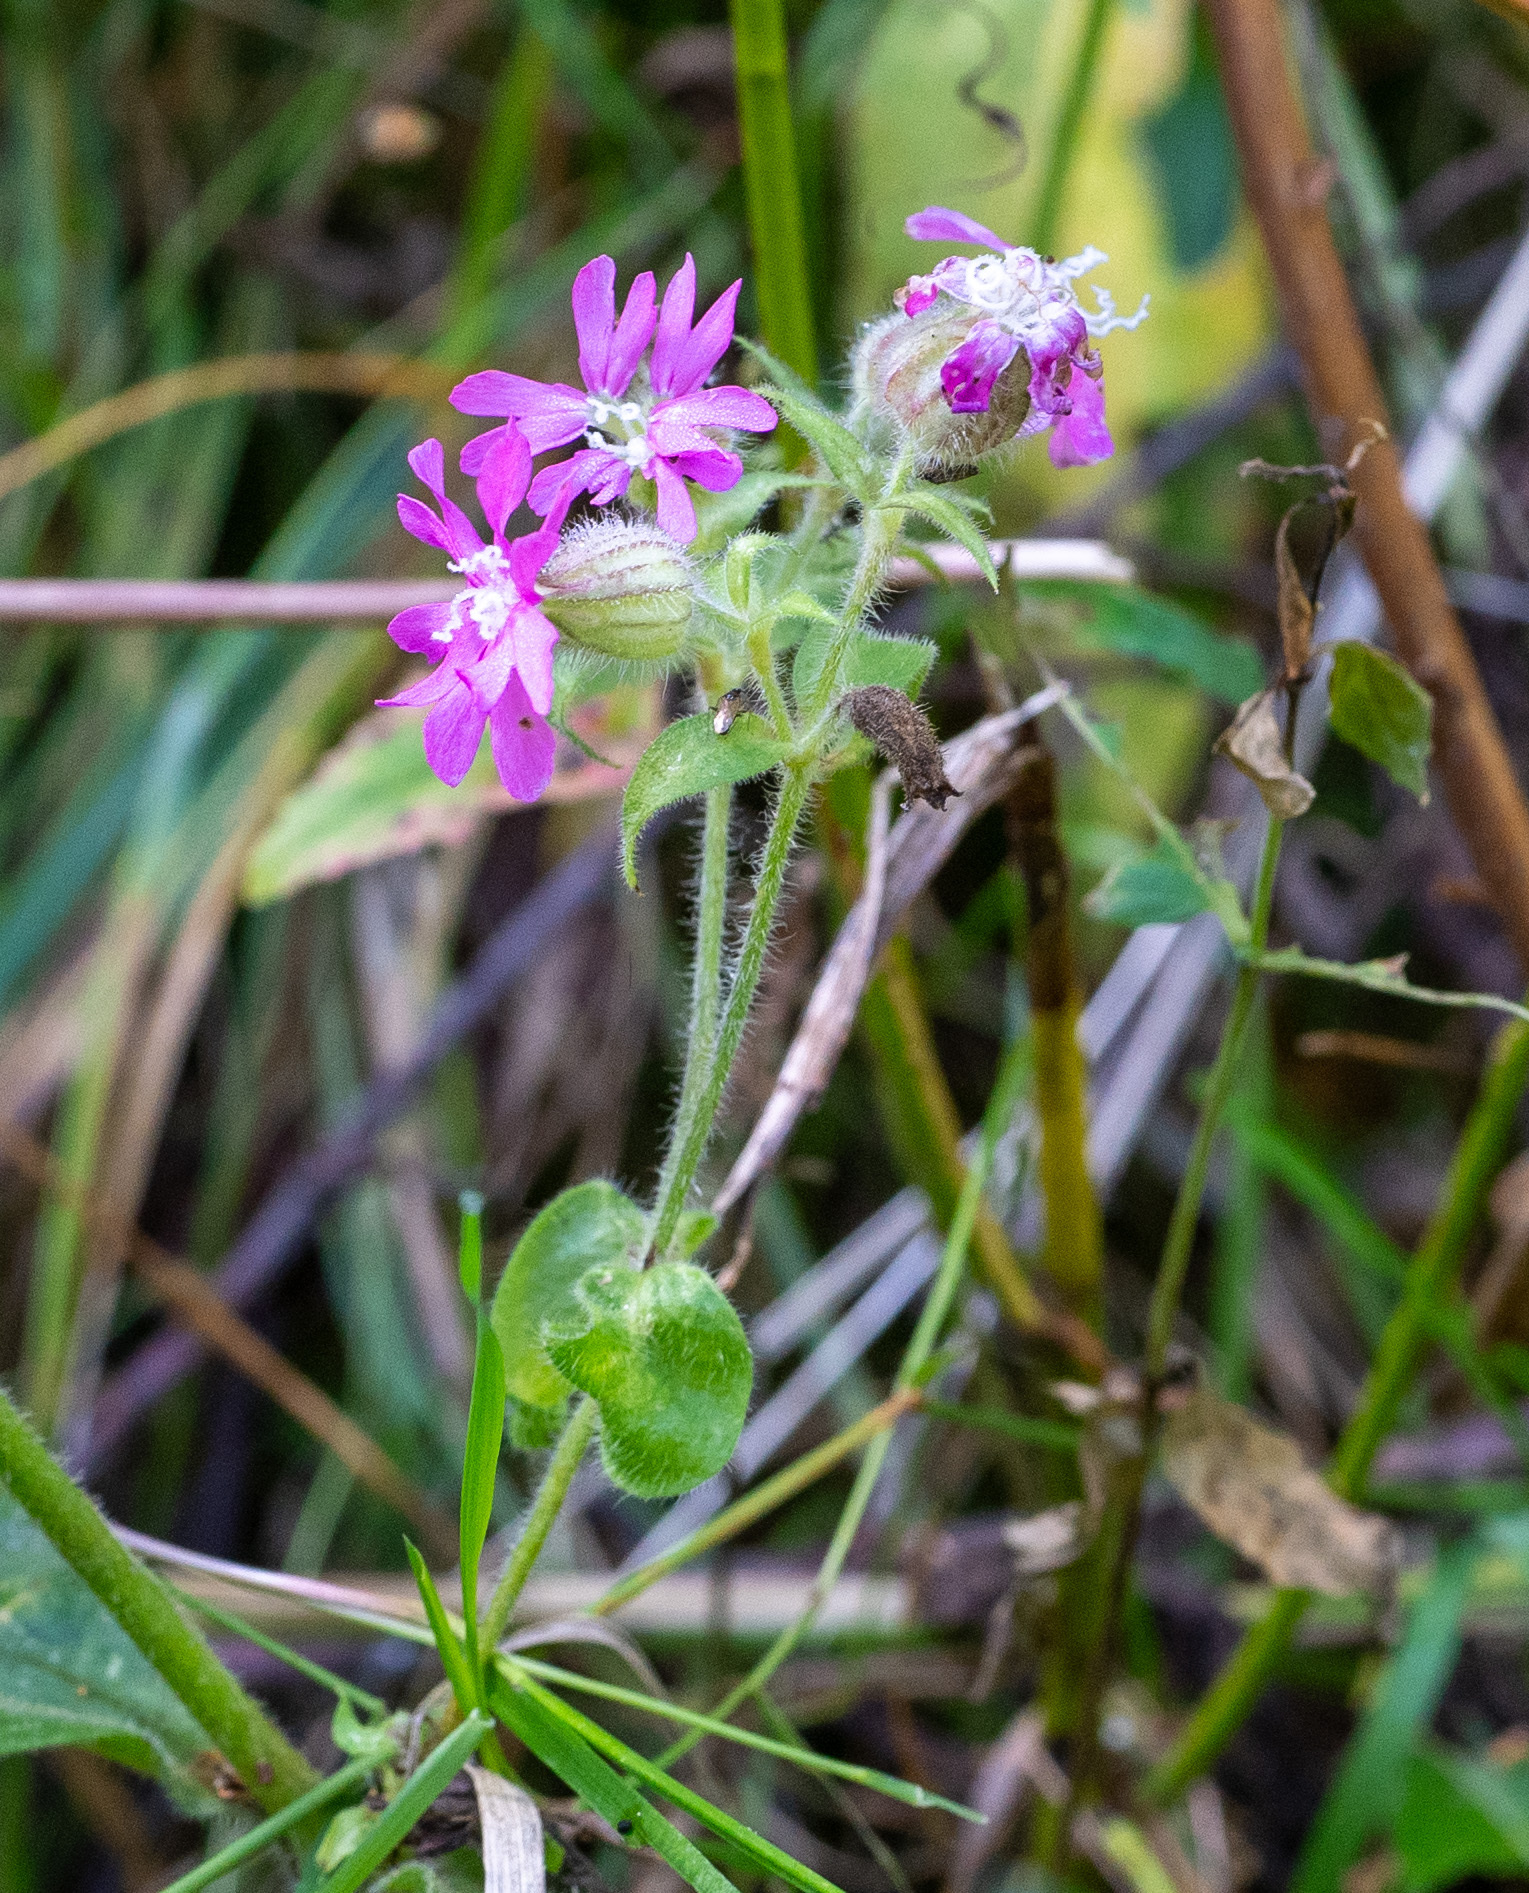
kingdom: Plantae
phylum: Tracheophyta
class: Magnoliopsida
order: Caryophyllales
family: Caryophyllaceae
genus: Silene
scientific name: Silene dioica
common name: Red campion
